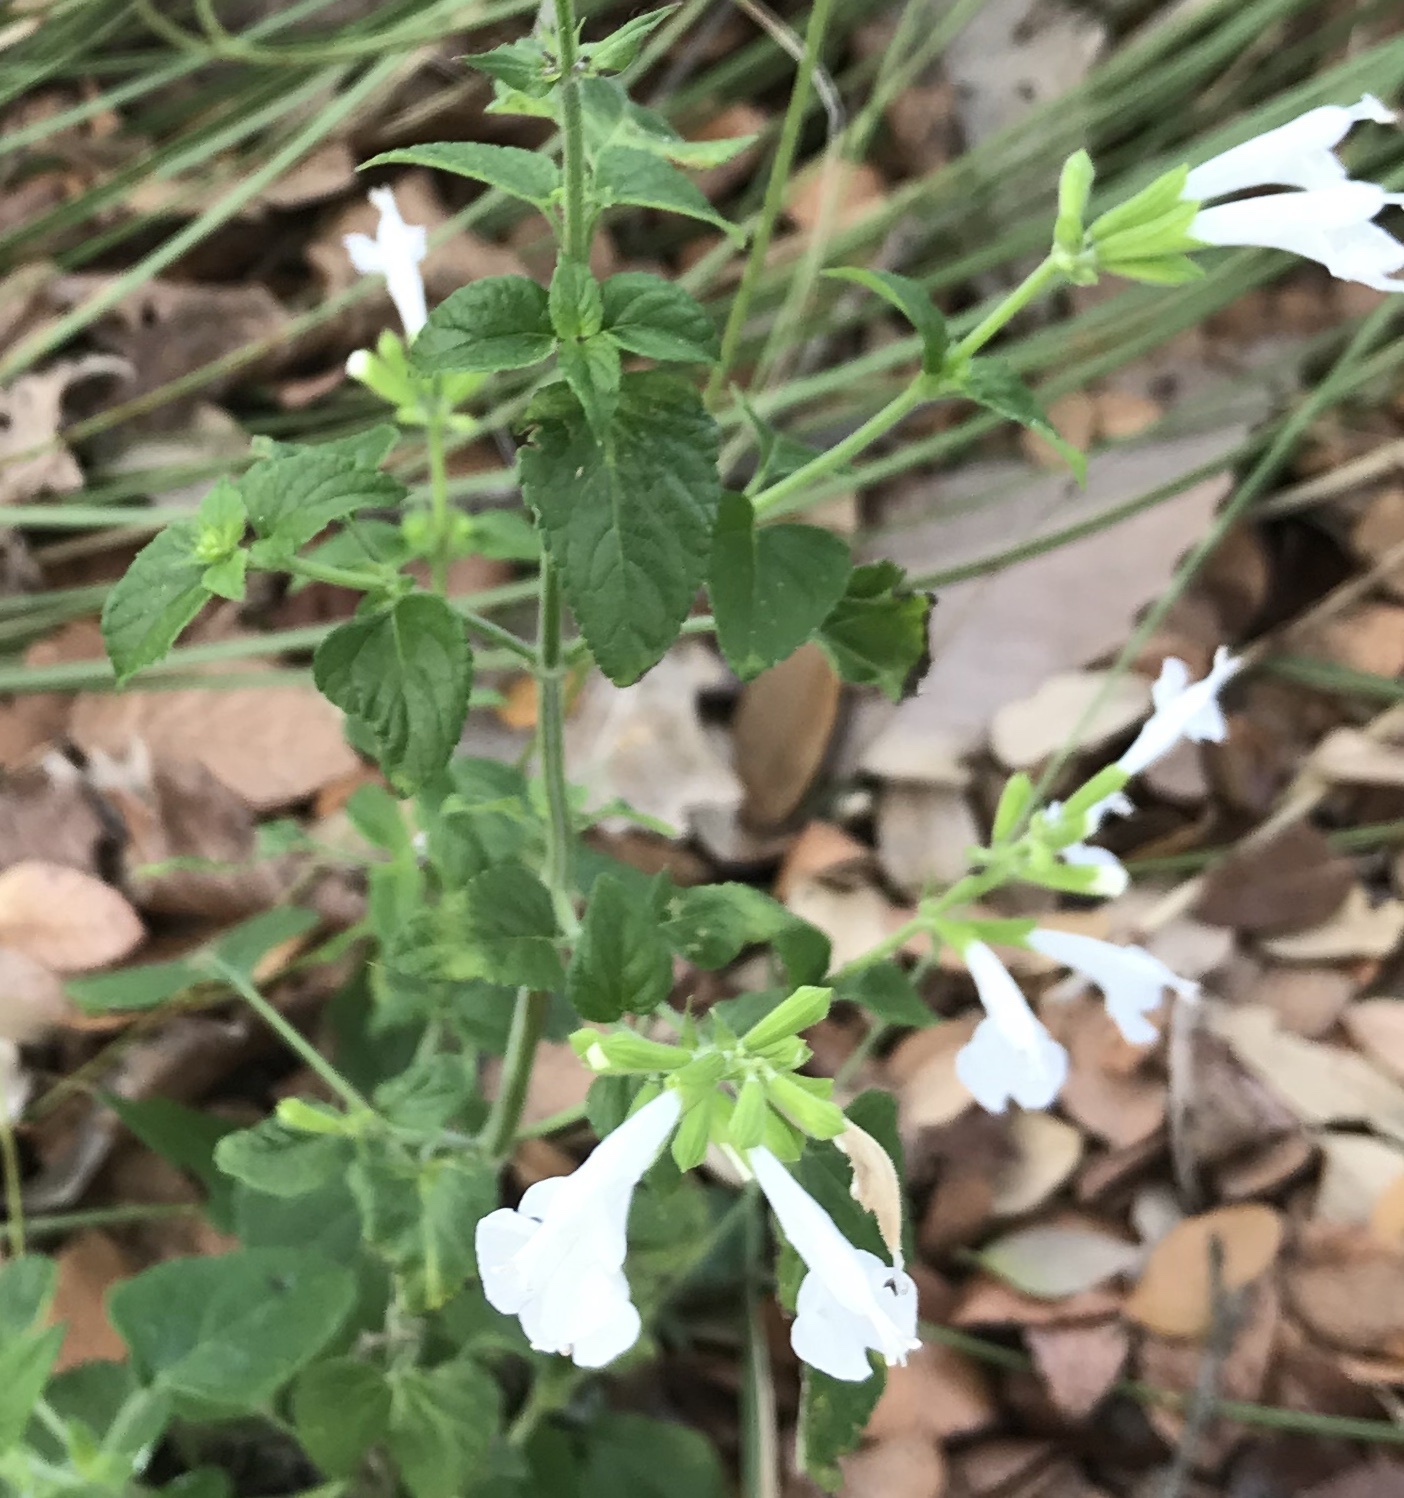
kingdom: Plantae
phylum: Tracheophyta
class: Magnoliopsida
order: Lamiales
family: Lamiaceae
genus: Salvia
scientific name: Salvia coccinea
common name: Blood sage
